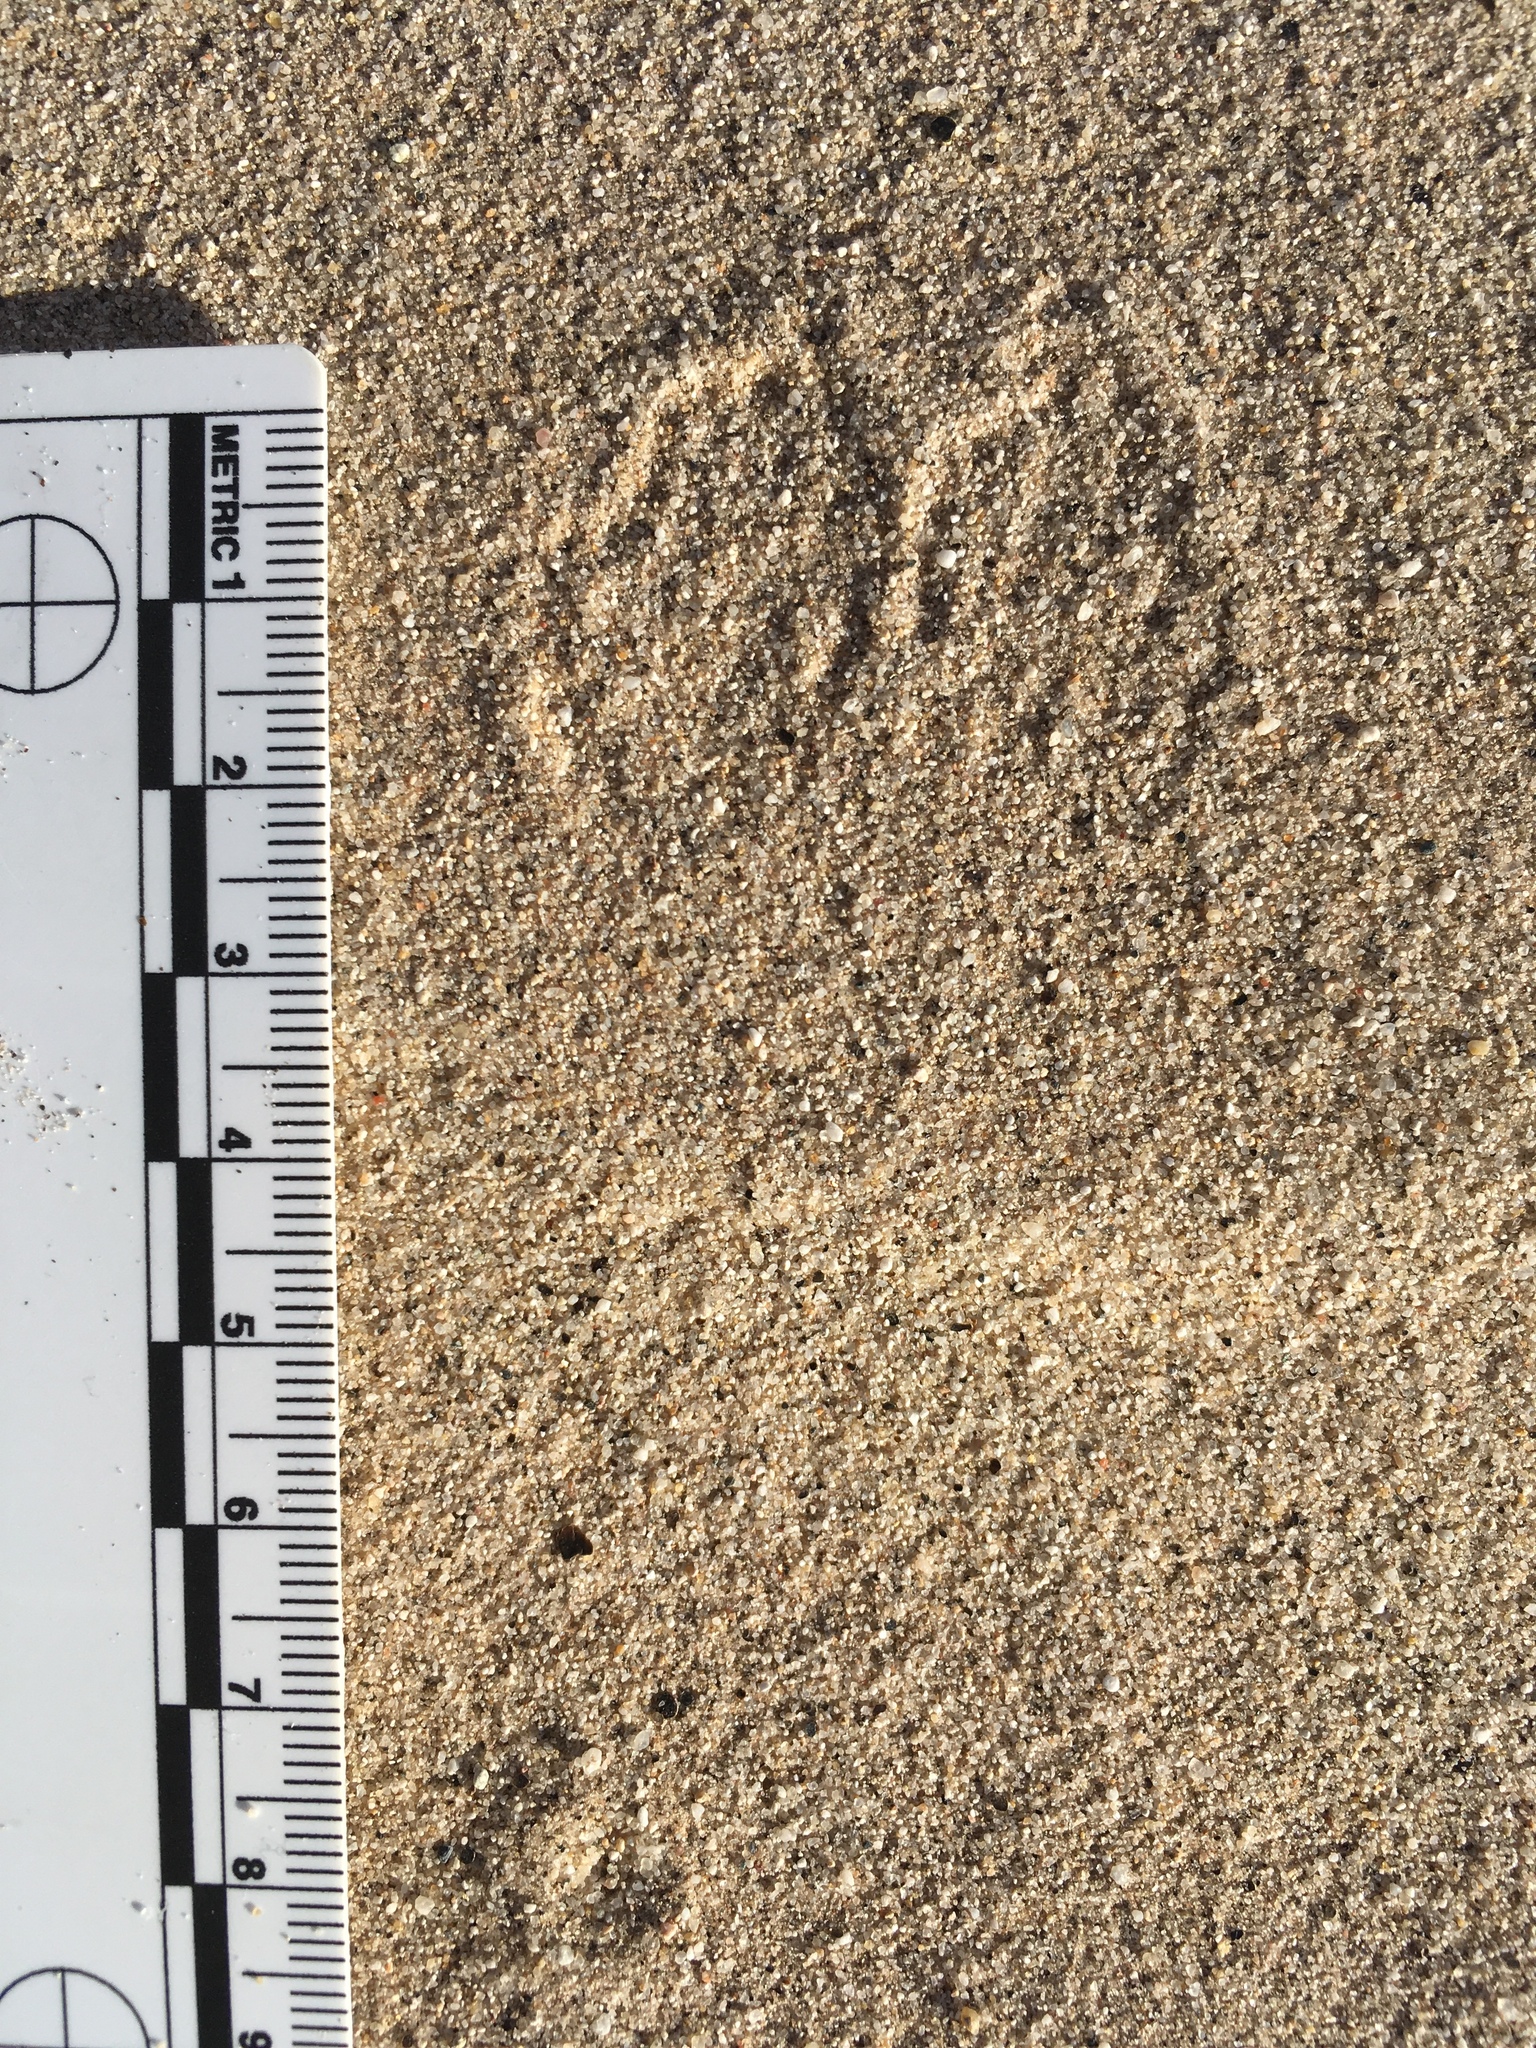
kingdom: Animalia
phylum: Chordata
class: Mammalia
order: Rodentia
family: Heteromyidae
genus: Dipodomys
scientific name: Dipodomys deserti
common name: Desert kangaroo rat
